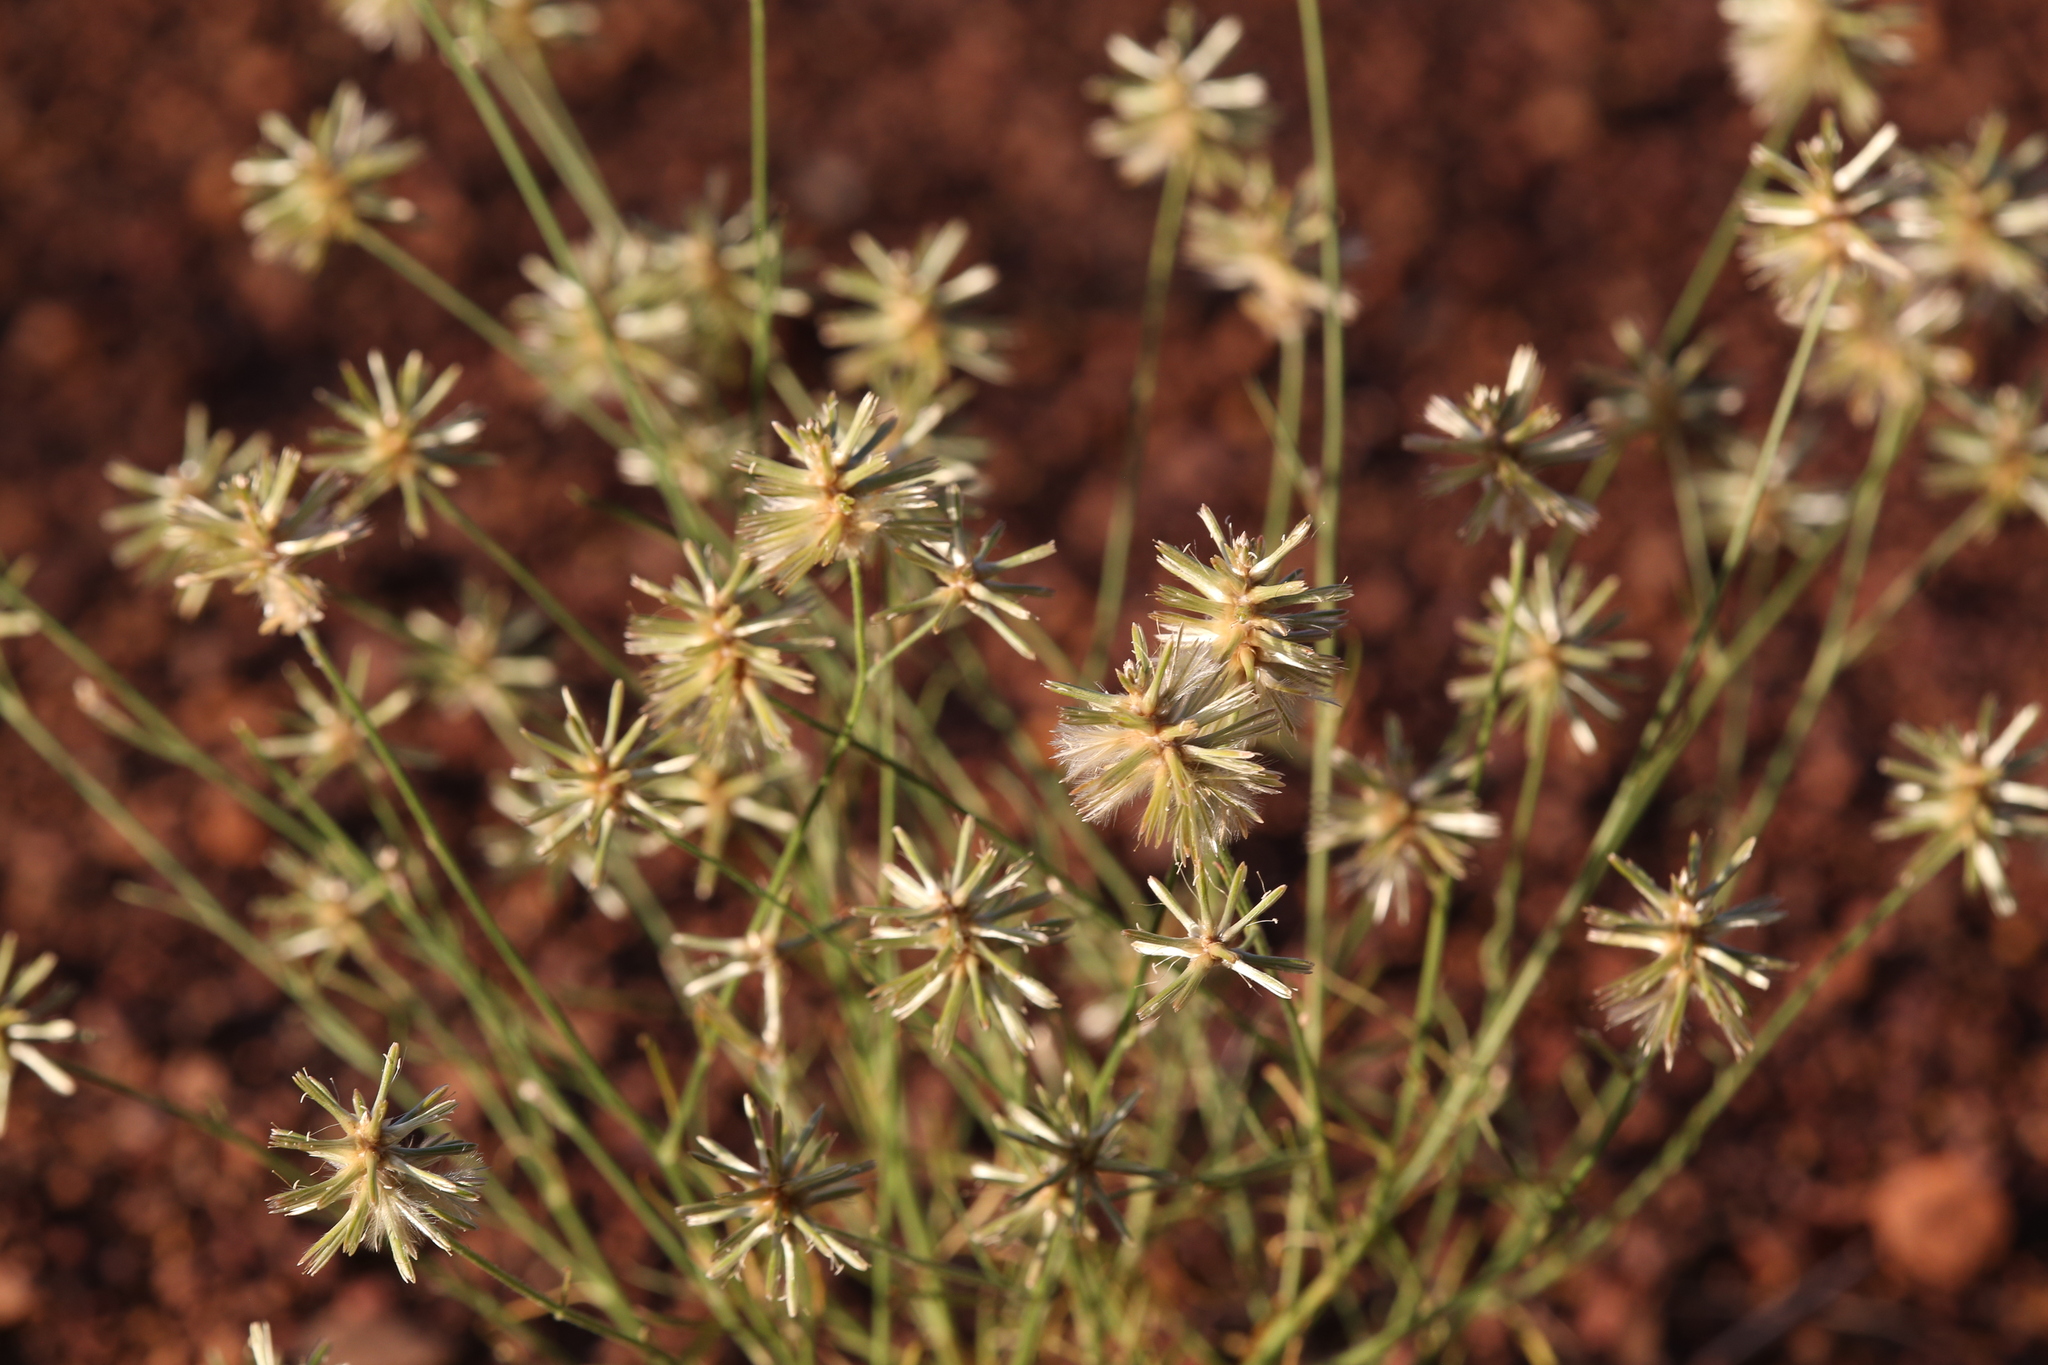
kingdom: Plantae
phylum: Tracheophyta
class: Magnoliopsida
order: Caryophyllales
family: Amaranthaceae
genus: Ptilotus
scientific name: Ptilotus fusiformis
